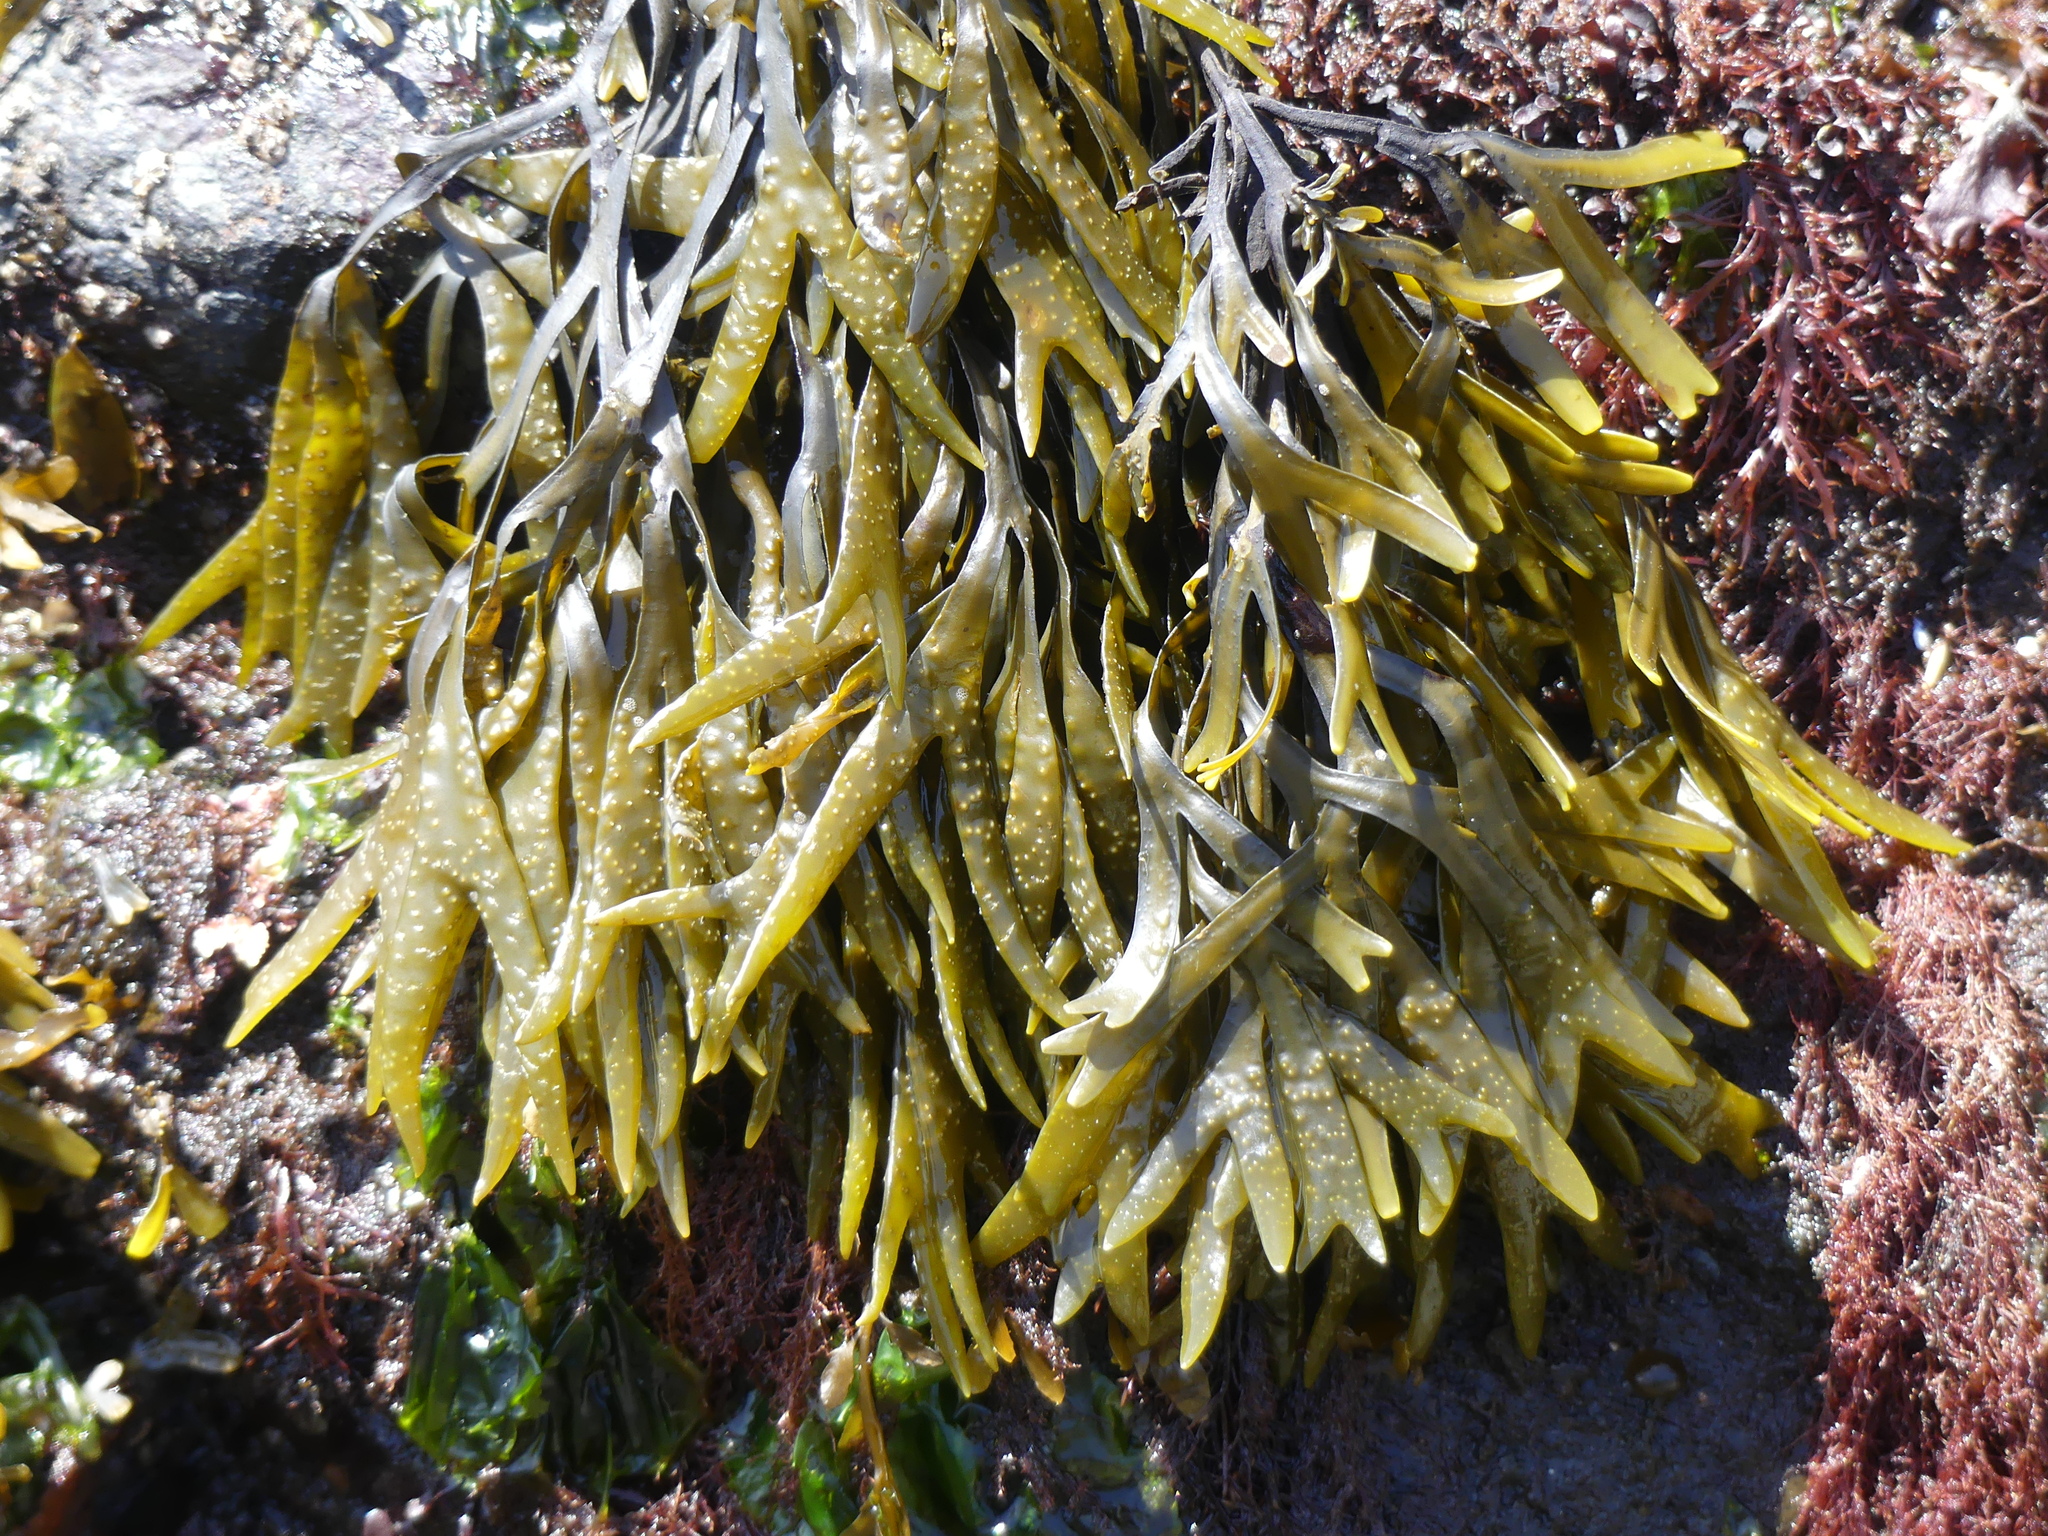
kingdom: Chromista
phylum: Ochrophyta
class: Phaeophyceae
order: Fucales
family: Fucaceae
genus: Fucus
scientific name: Fucus distichus
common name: Rockweed
